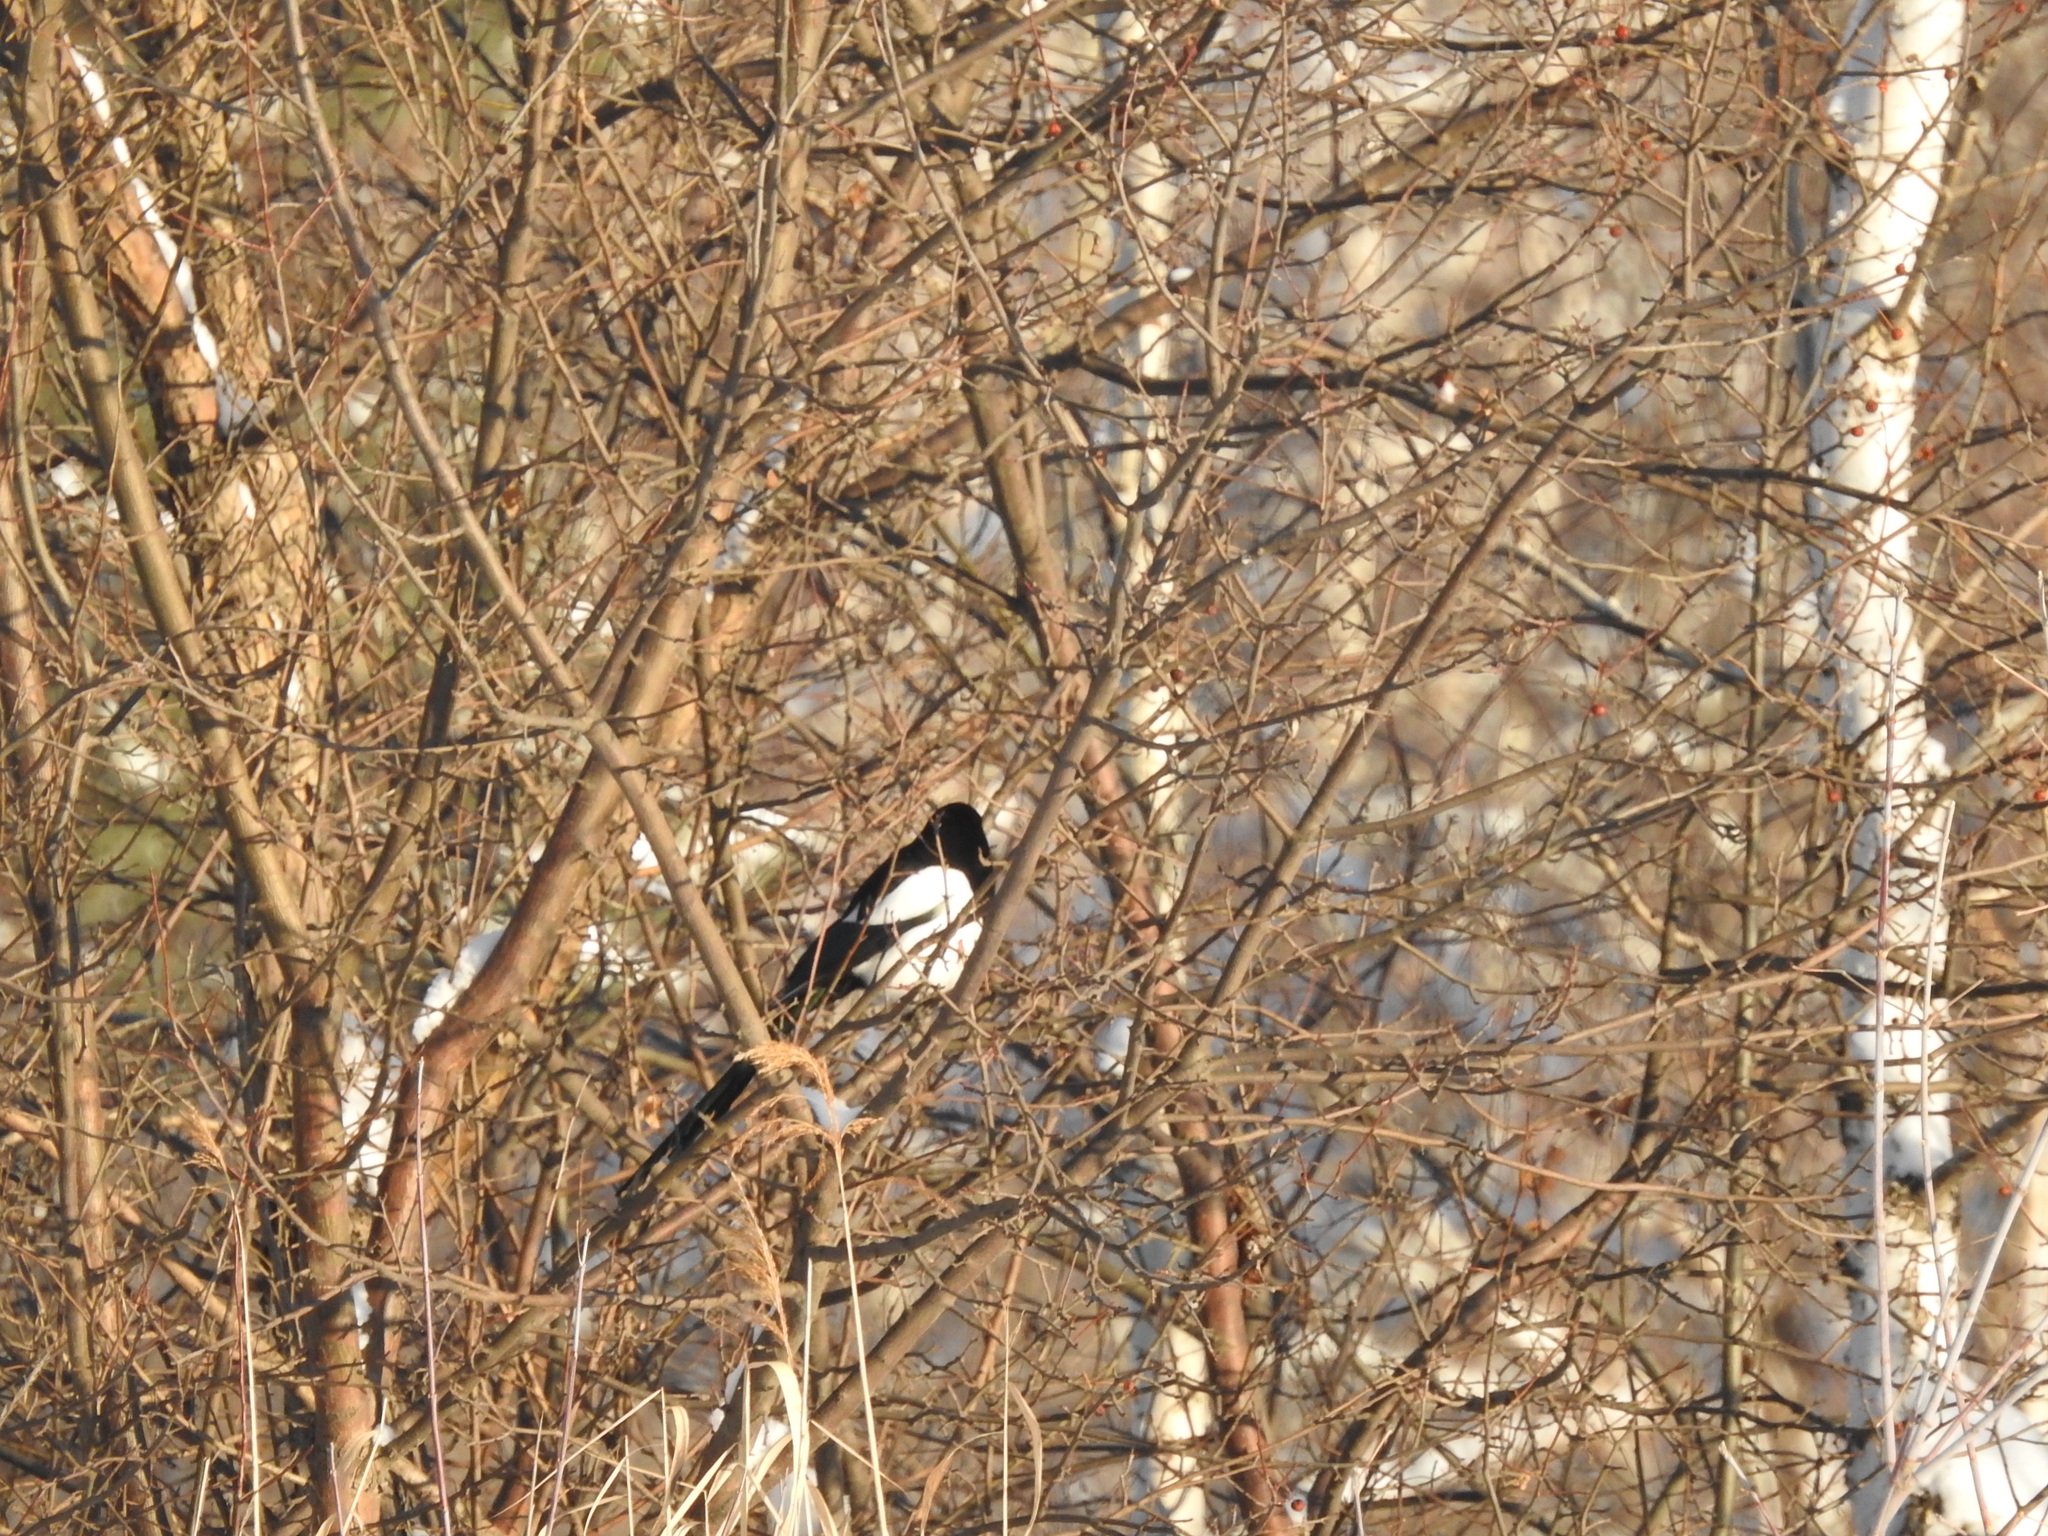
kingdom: Animalia
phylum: Chordata
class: Aves
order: Passeriformes
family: Corvidae
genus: Pica
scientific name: Pica pica
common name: Eurasian magpie
